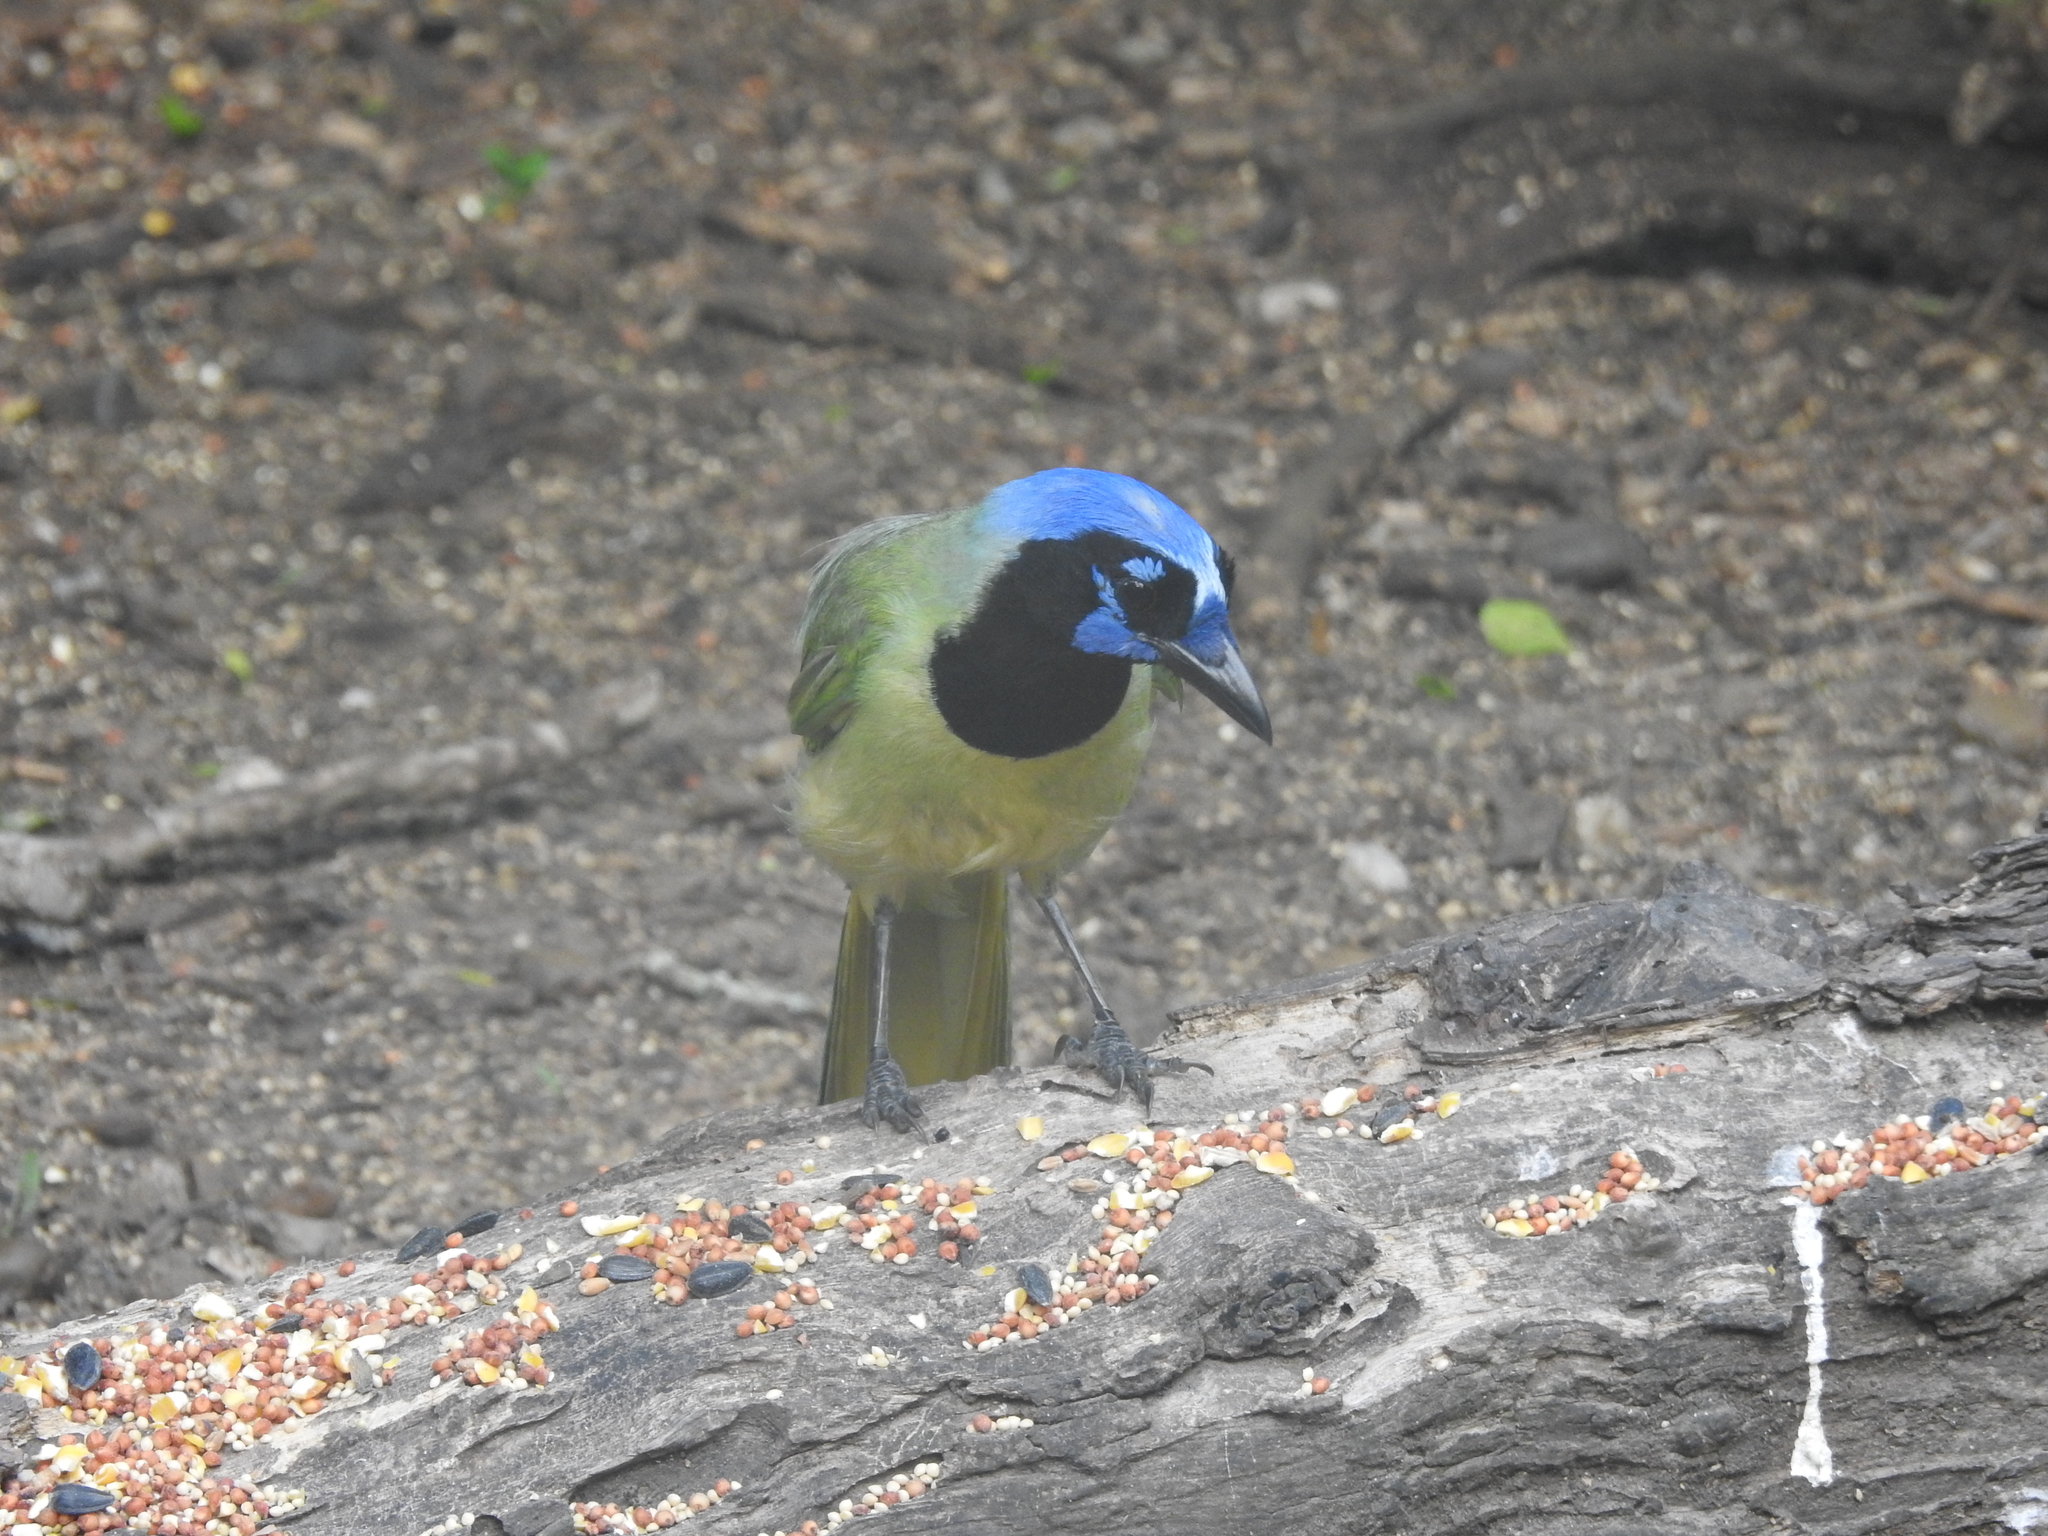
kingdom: Animalia
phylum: Chordata
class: Aves
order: Passeriformes
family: Corvidae
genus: Cyanocorax
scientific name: Cyanocorax yncas
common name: Green jay
